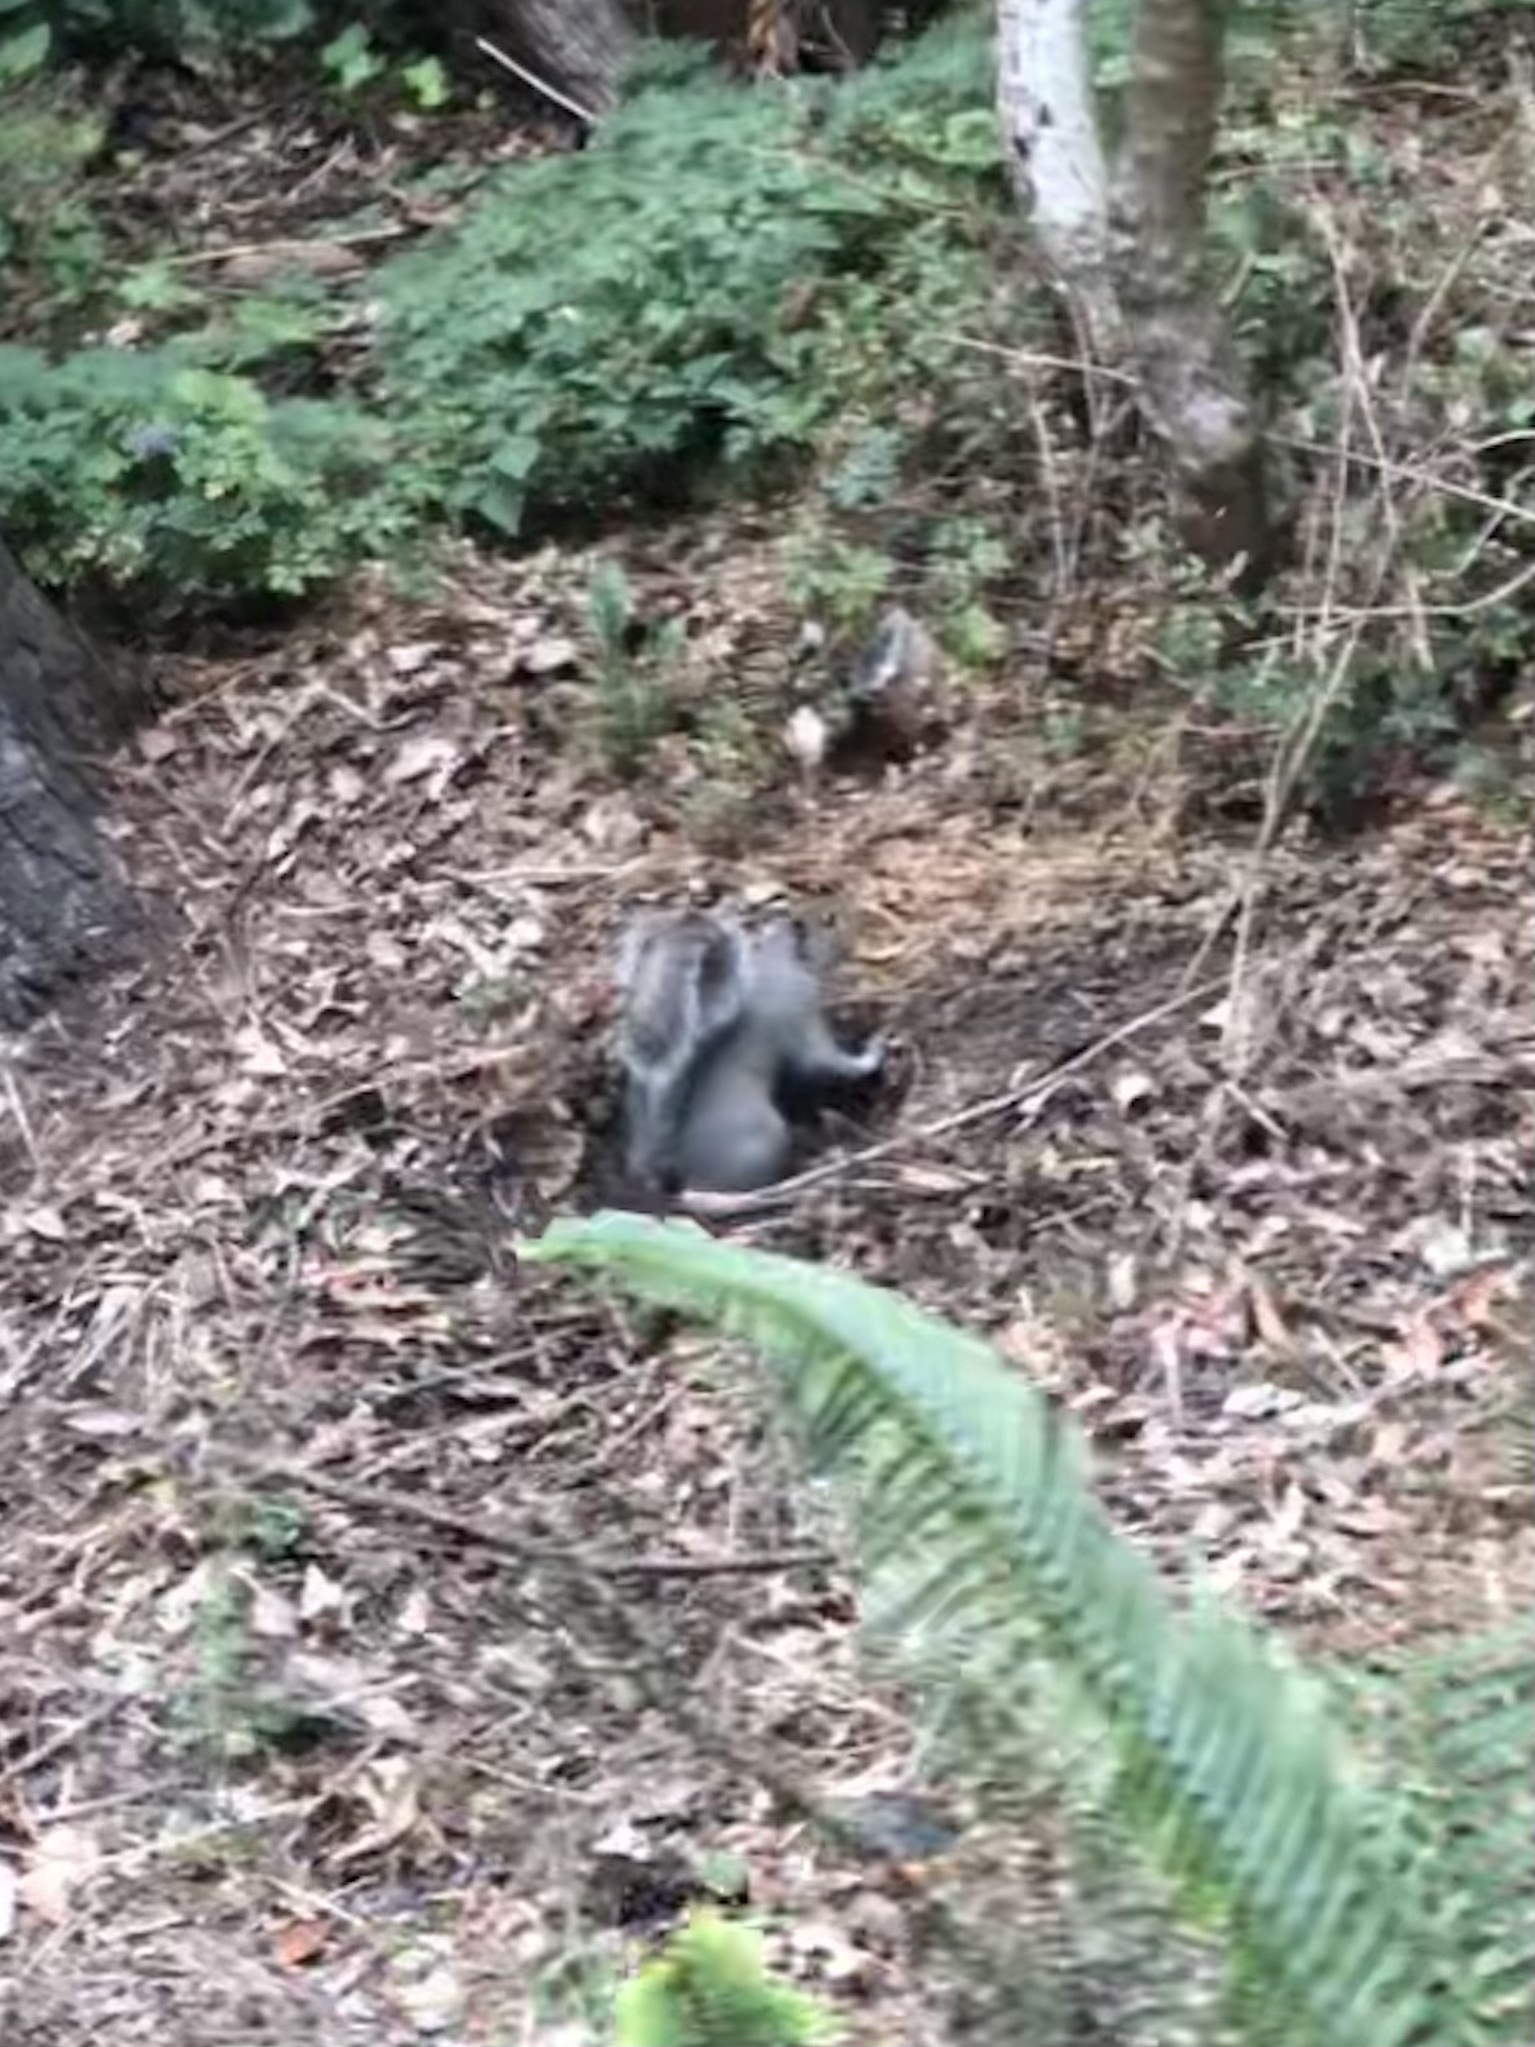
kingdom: Animalia
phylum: Chordata
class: Mammalia
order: Rodentia
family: Sciuridae
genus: Sciurus
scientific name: Sciurus carolinensis
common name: Eastern gray squirrel
